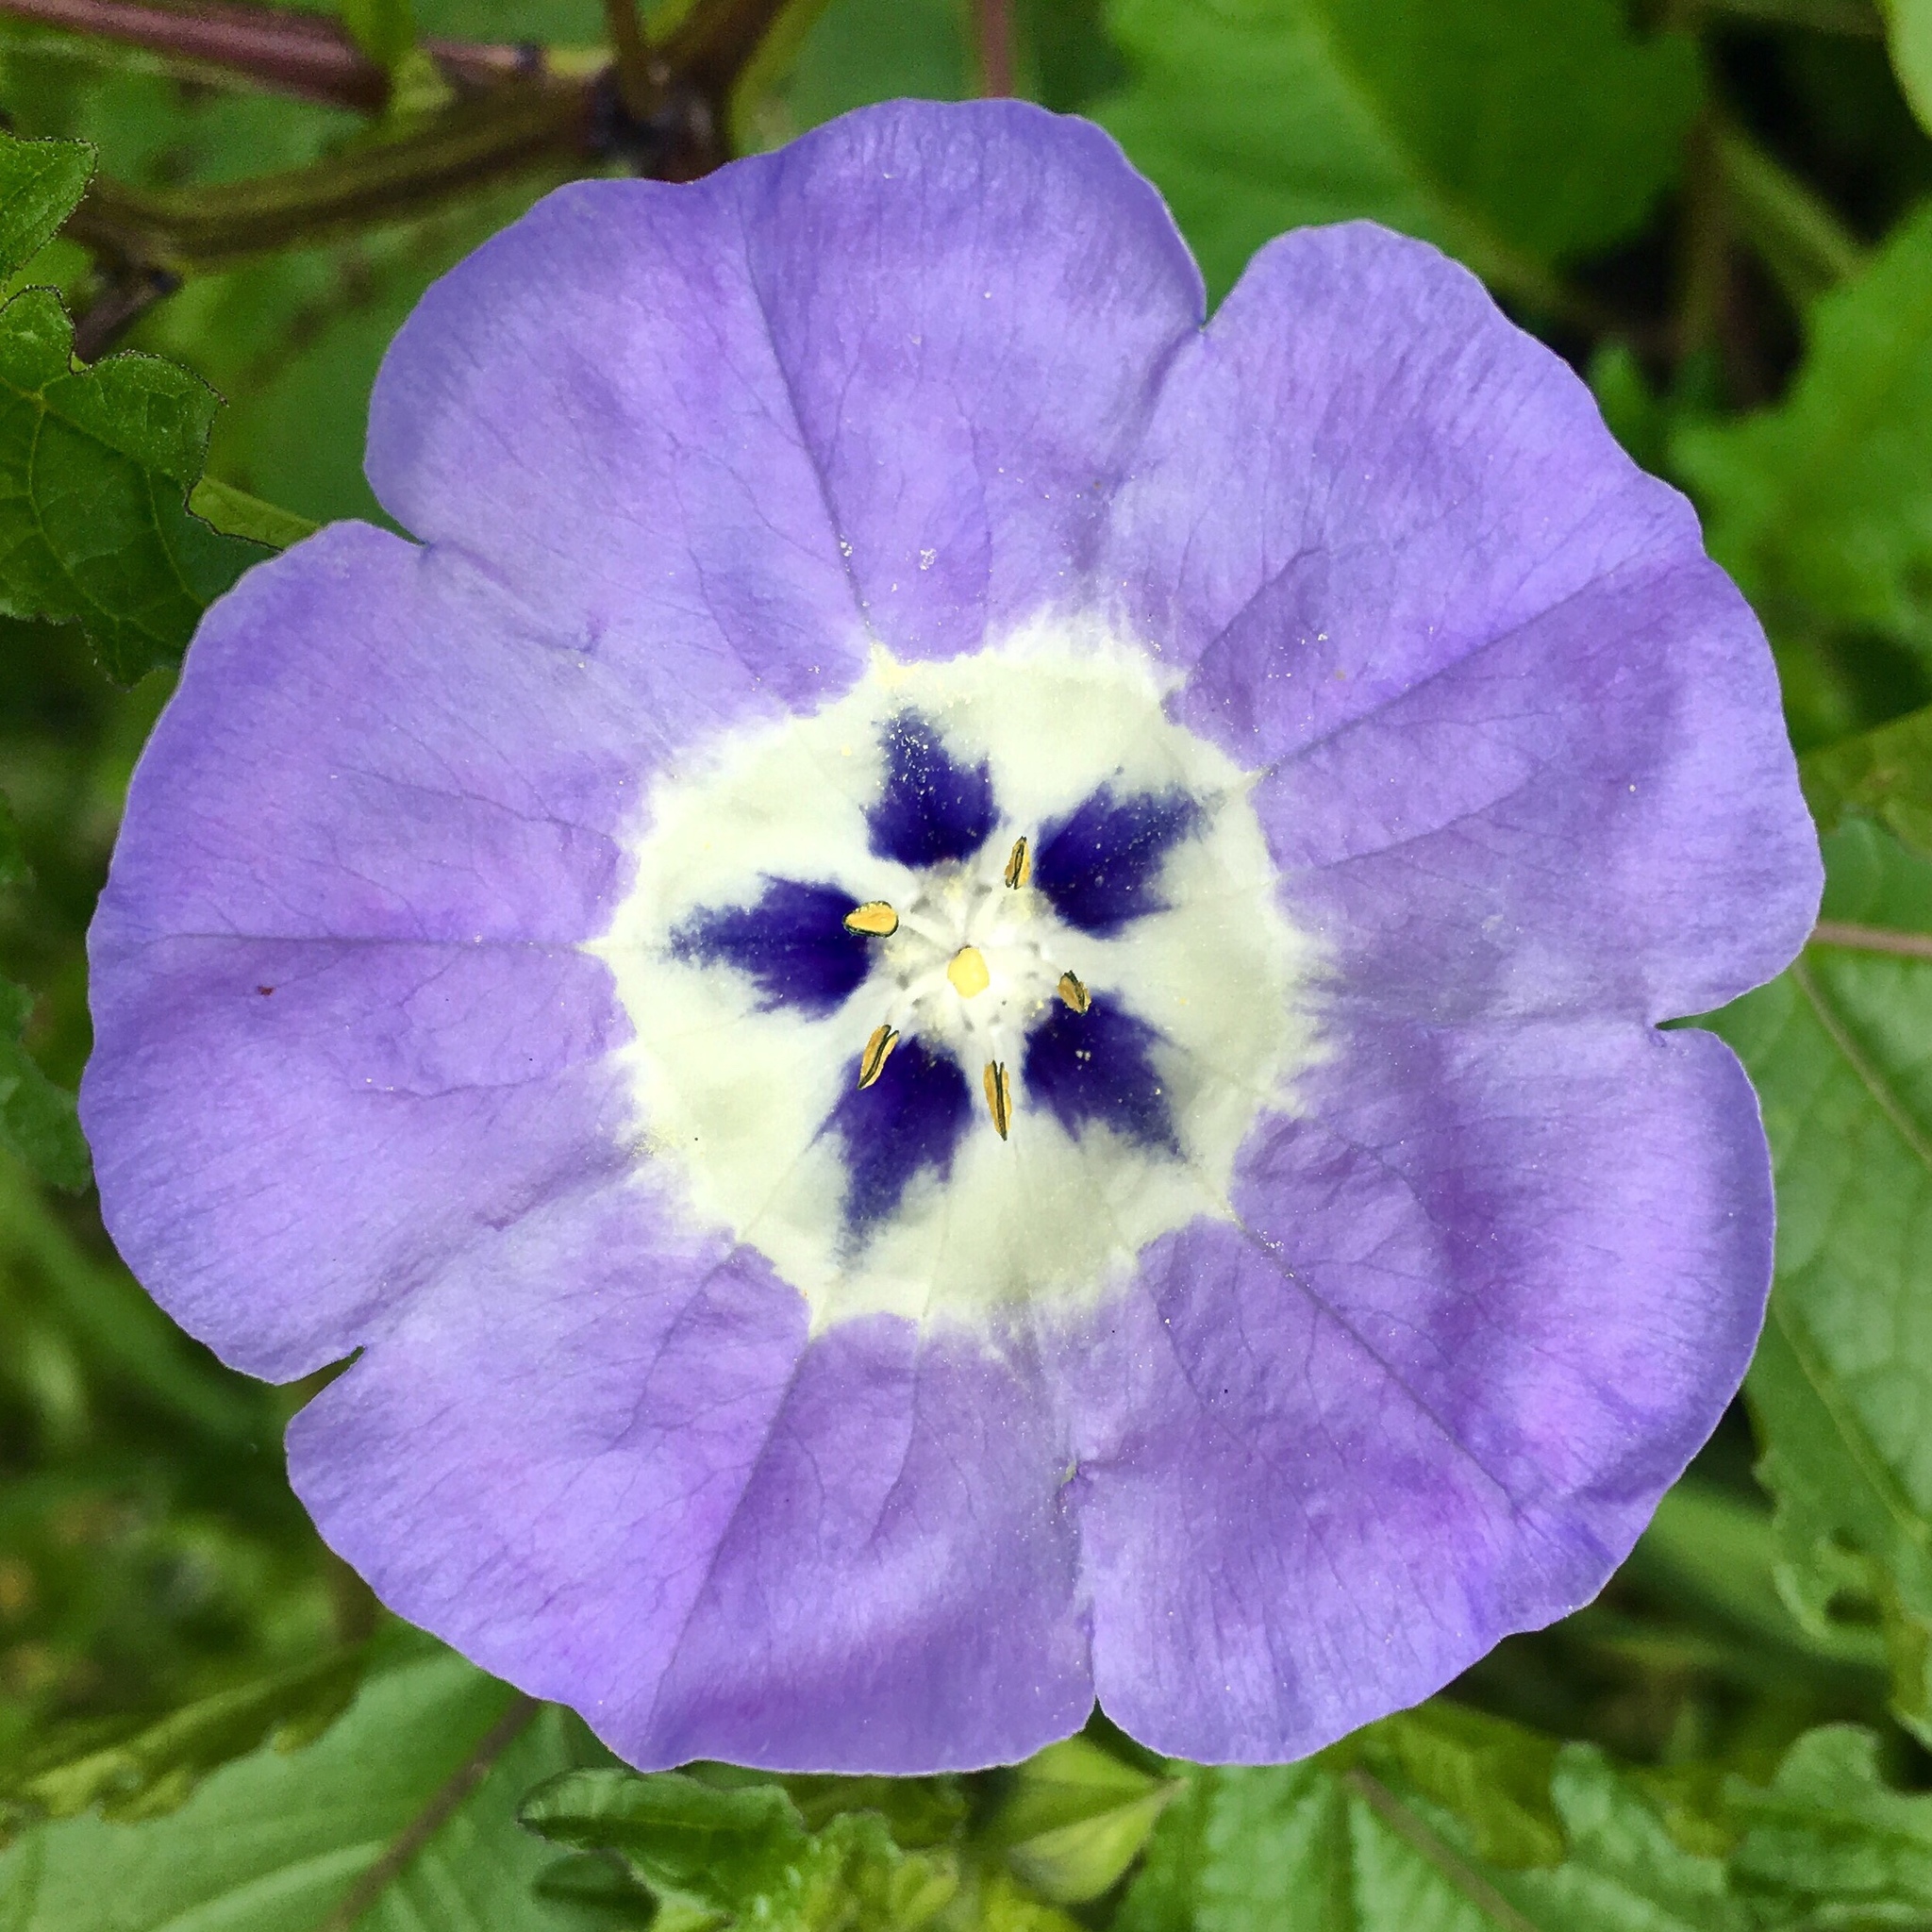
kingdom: Plantae
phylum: Tracheophyta
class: Magnoliopsida
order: Solanales
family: Solanaceae
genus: Nicandra
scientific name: Nicandra physalodes
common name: Apple-of-peru
